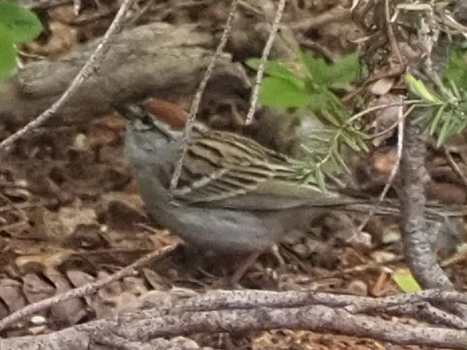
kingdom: Animalia
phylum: Chordata
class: Aves
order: Passeriformes
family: Passerellidae
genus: Spizella
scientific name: Spizella passerina
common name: Chipping sparrow
